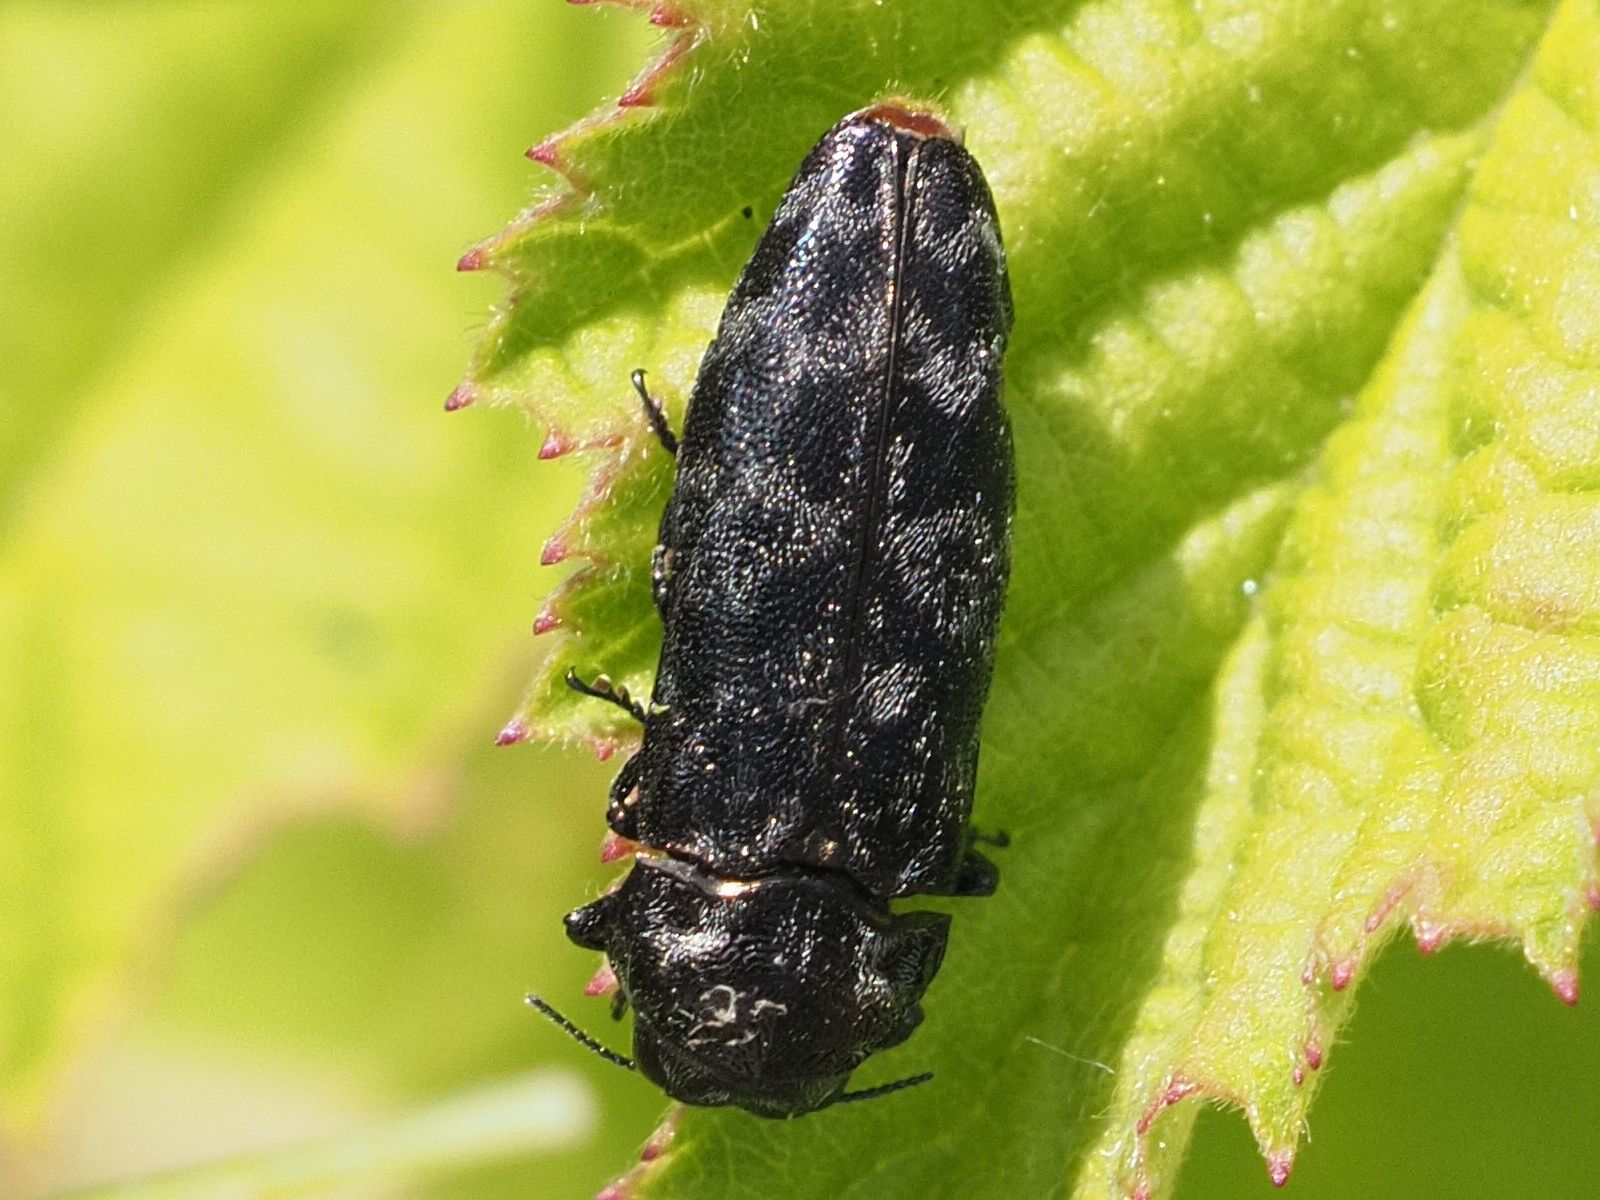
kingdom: Animalia
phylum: Arthropoda
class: Insecta
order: Coleoptera
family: Buprestidae
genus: Coraebus
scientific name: Coraebus rubi
